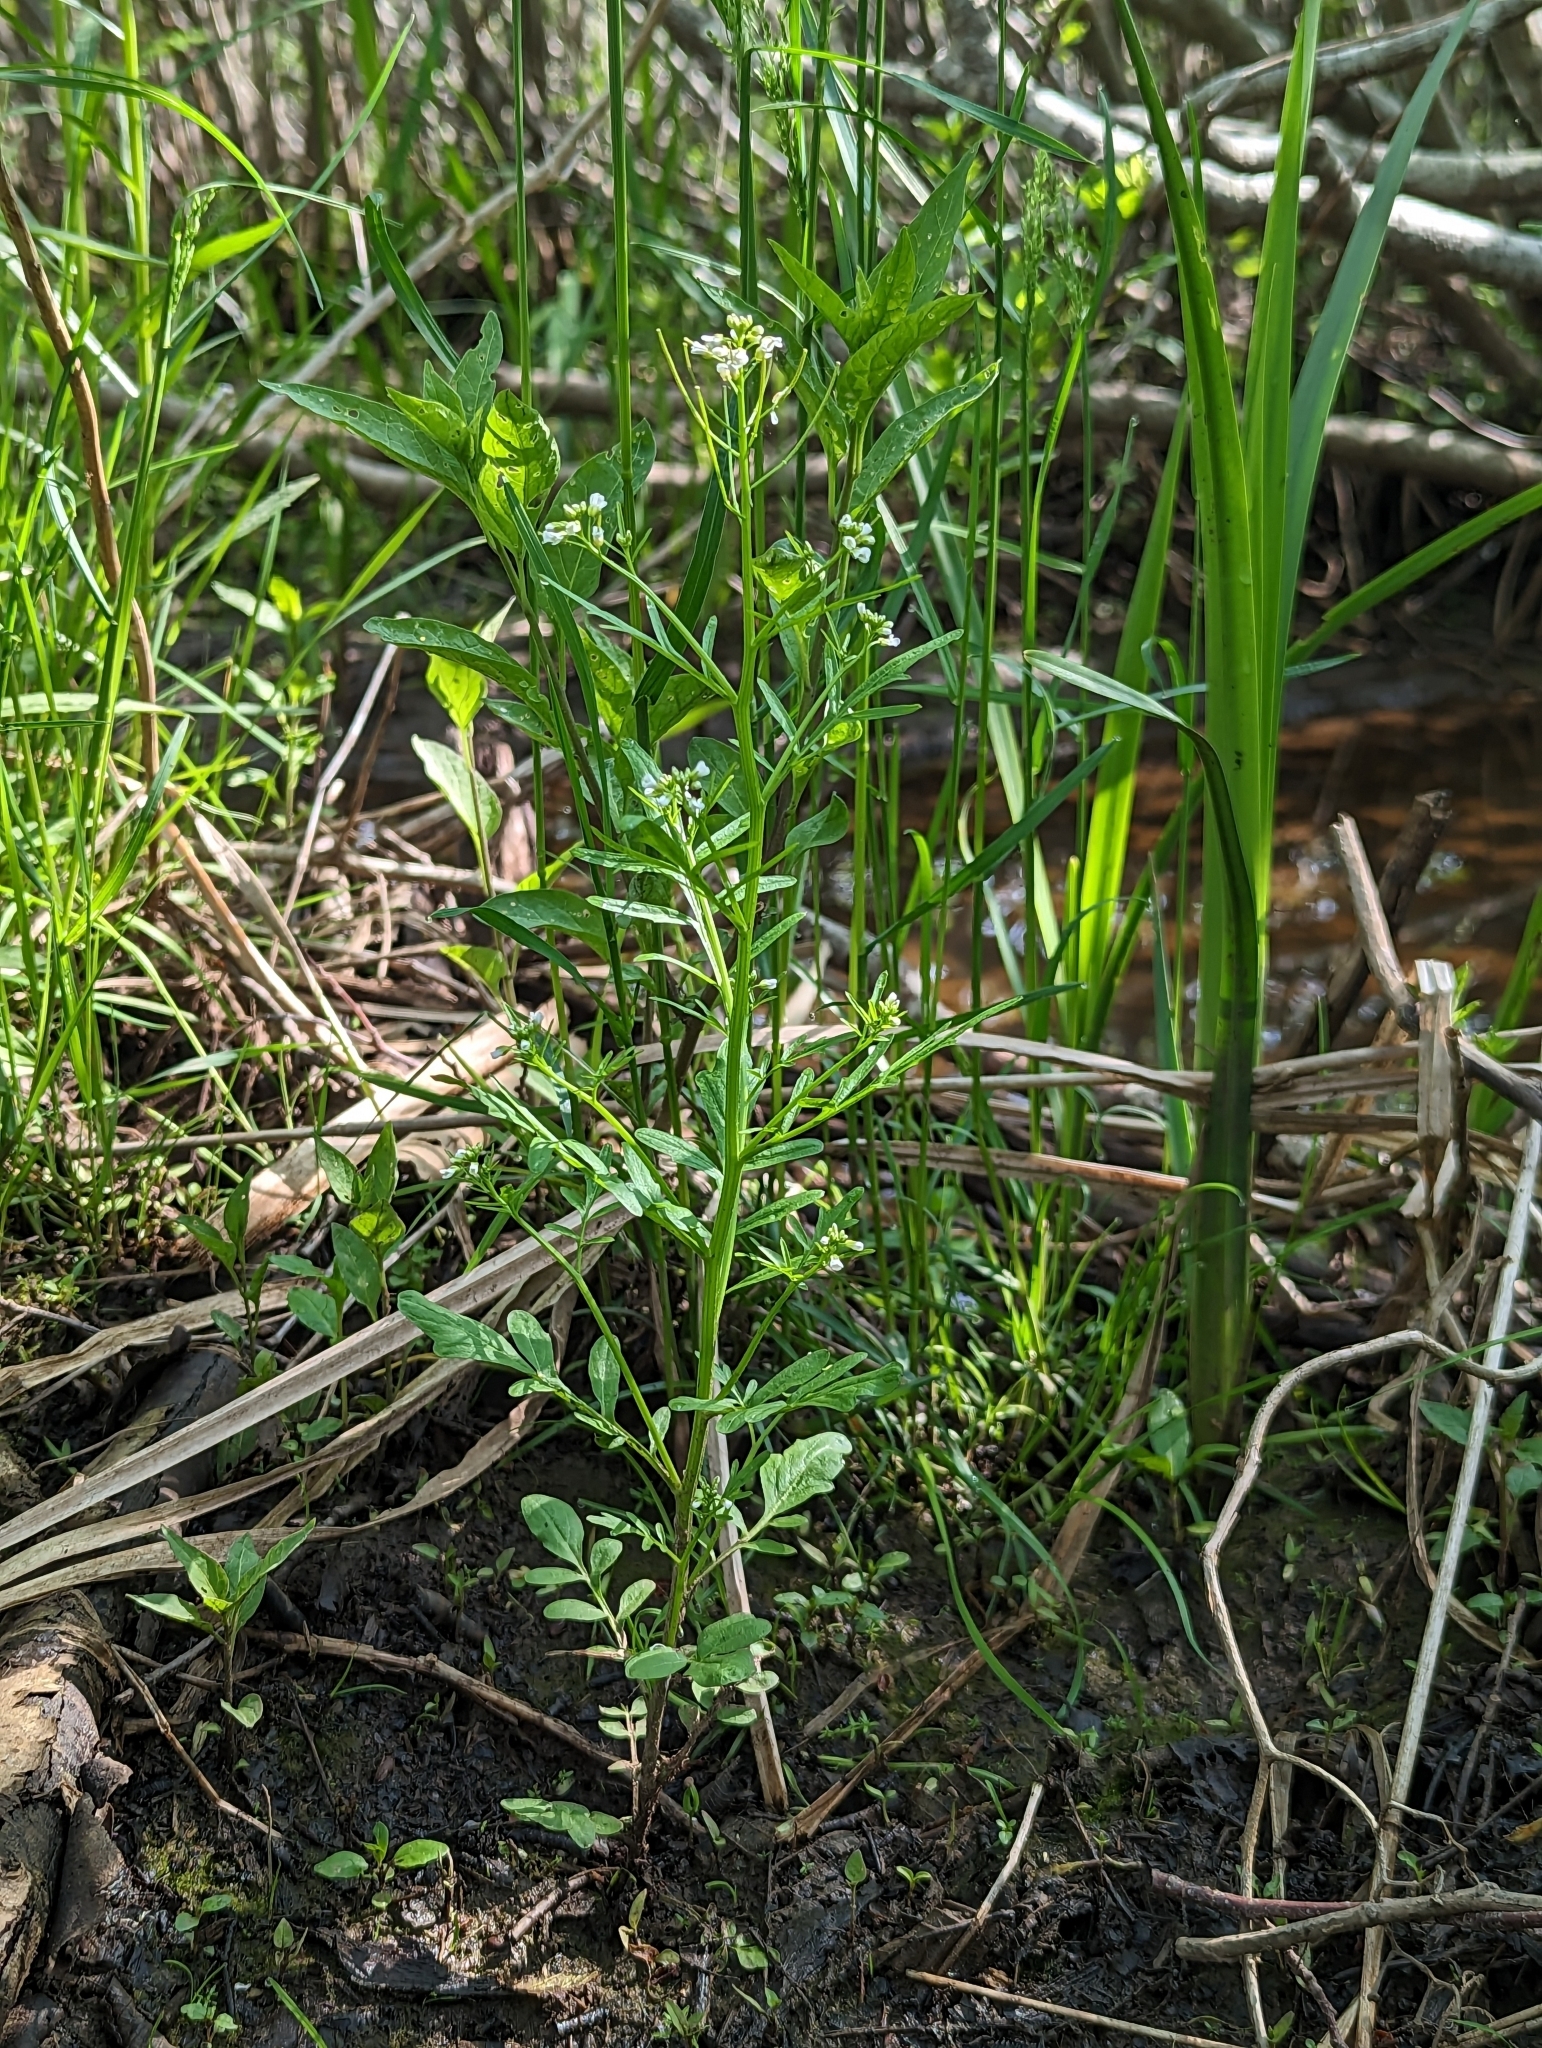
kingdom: Plantae
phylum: Tracheophyta
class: Magnoliopsida
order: Brassicales
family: Brassicaceae
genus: Cardamine
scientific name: Cardamine pensylvanica
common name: Pennsylvania bittercress
